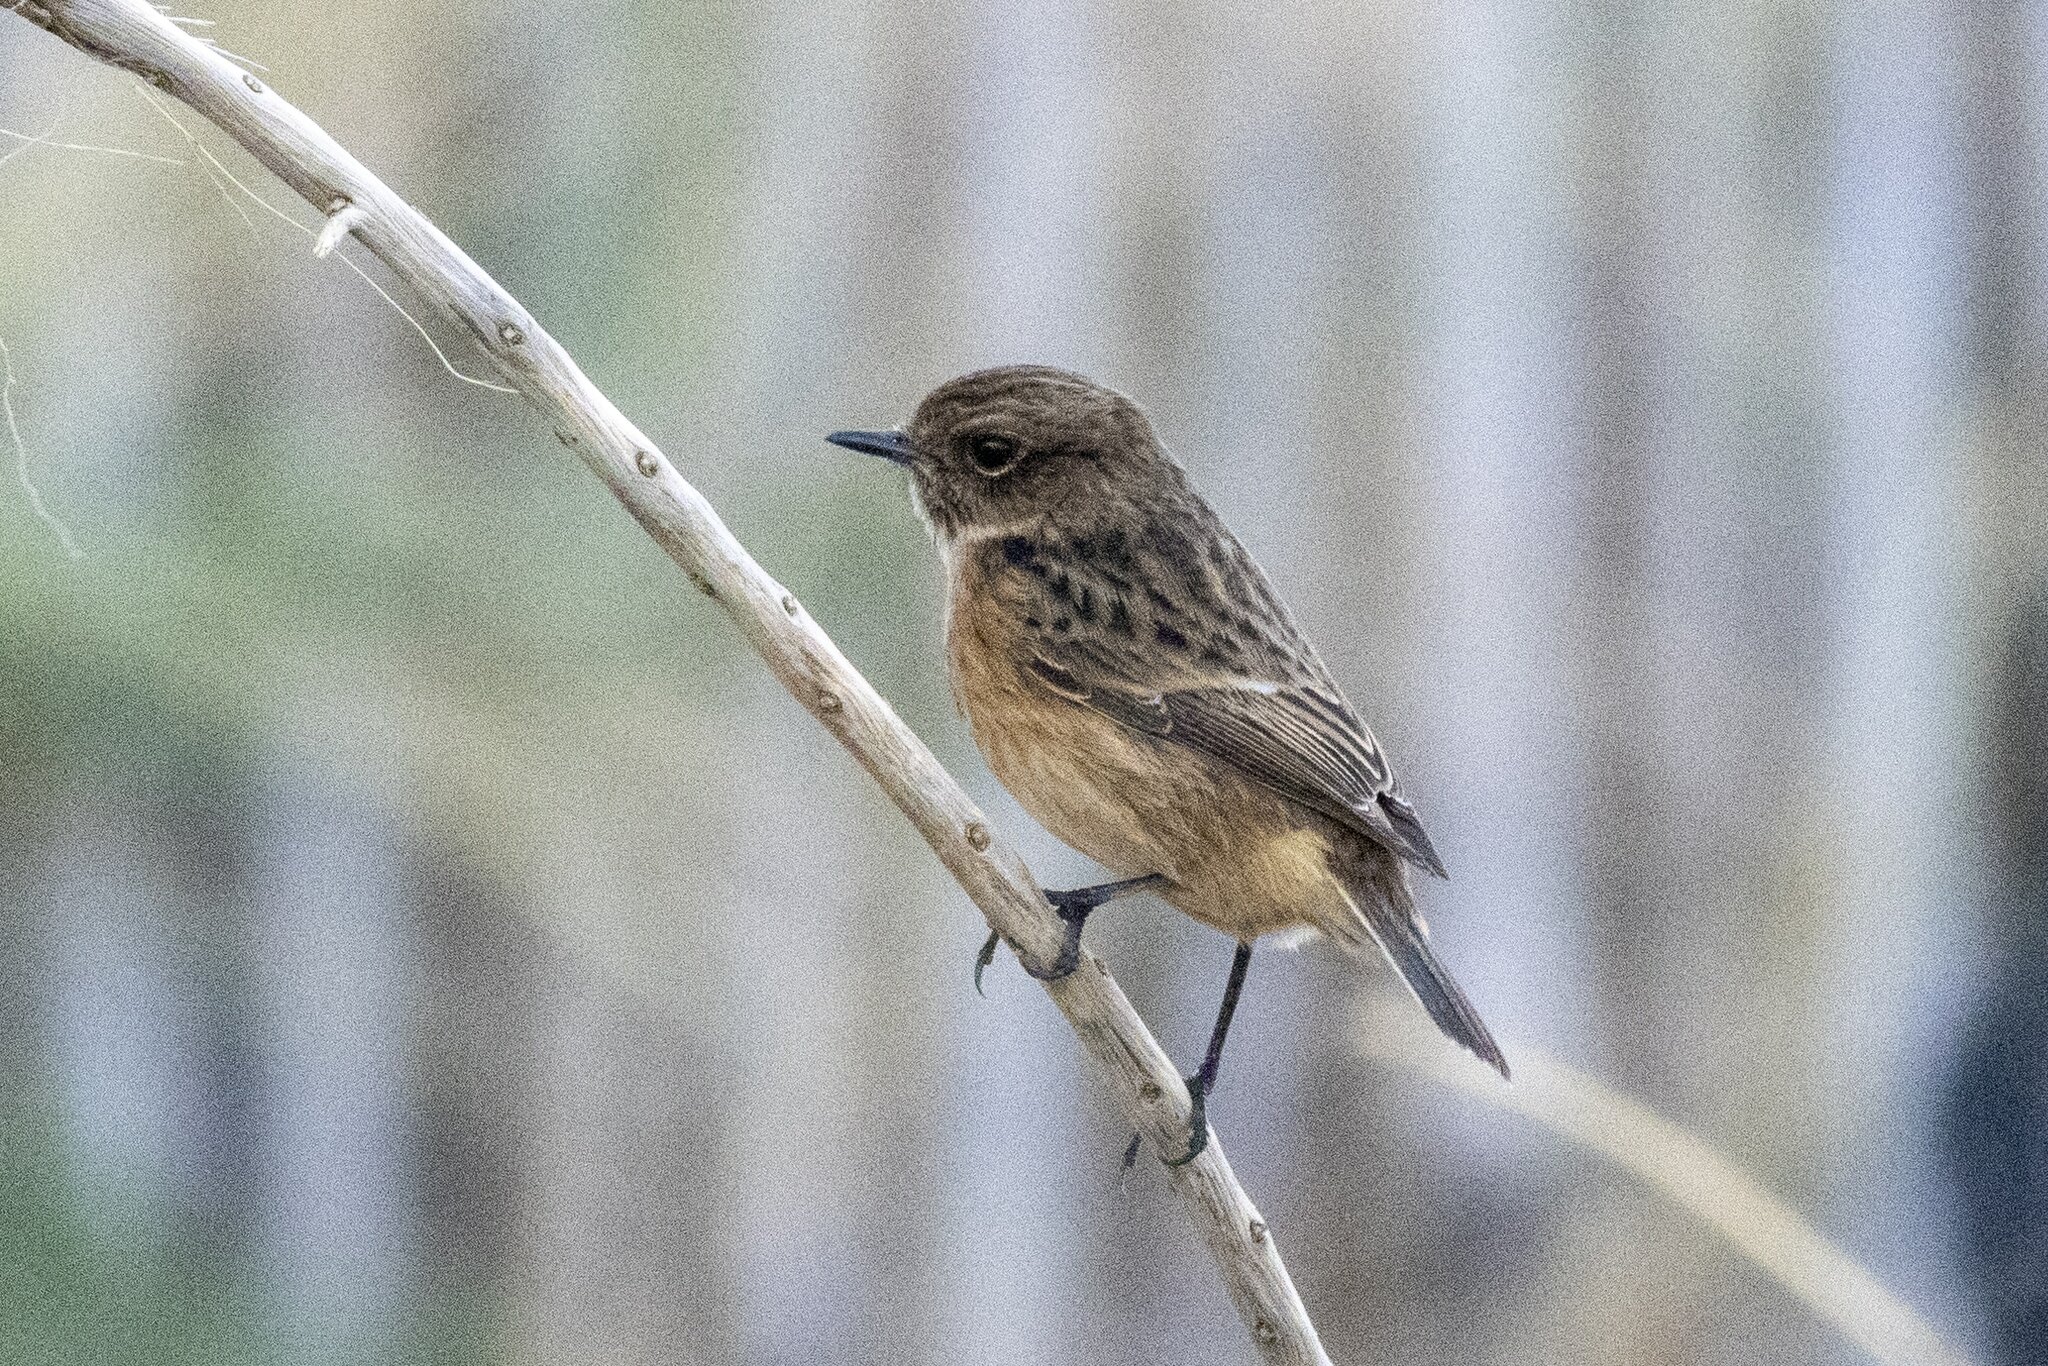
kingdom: Animalia
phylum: Chordata
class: Aves
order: Passeriformes
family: Muscicapidae
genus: Saxicola
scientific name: Saxicola rubicola
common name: European stonechat
